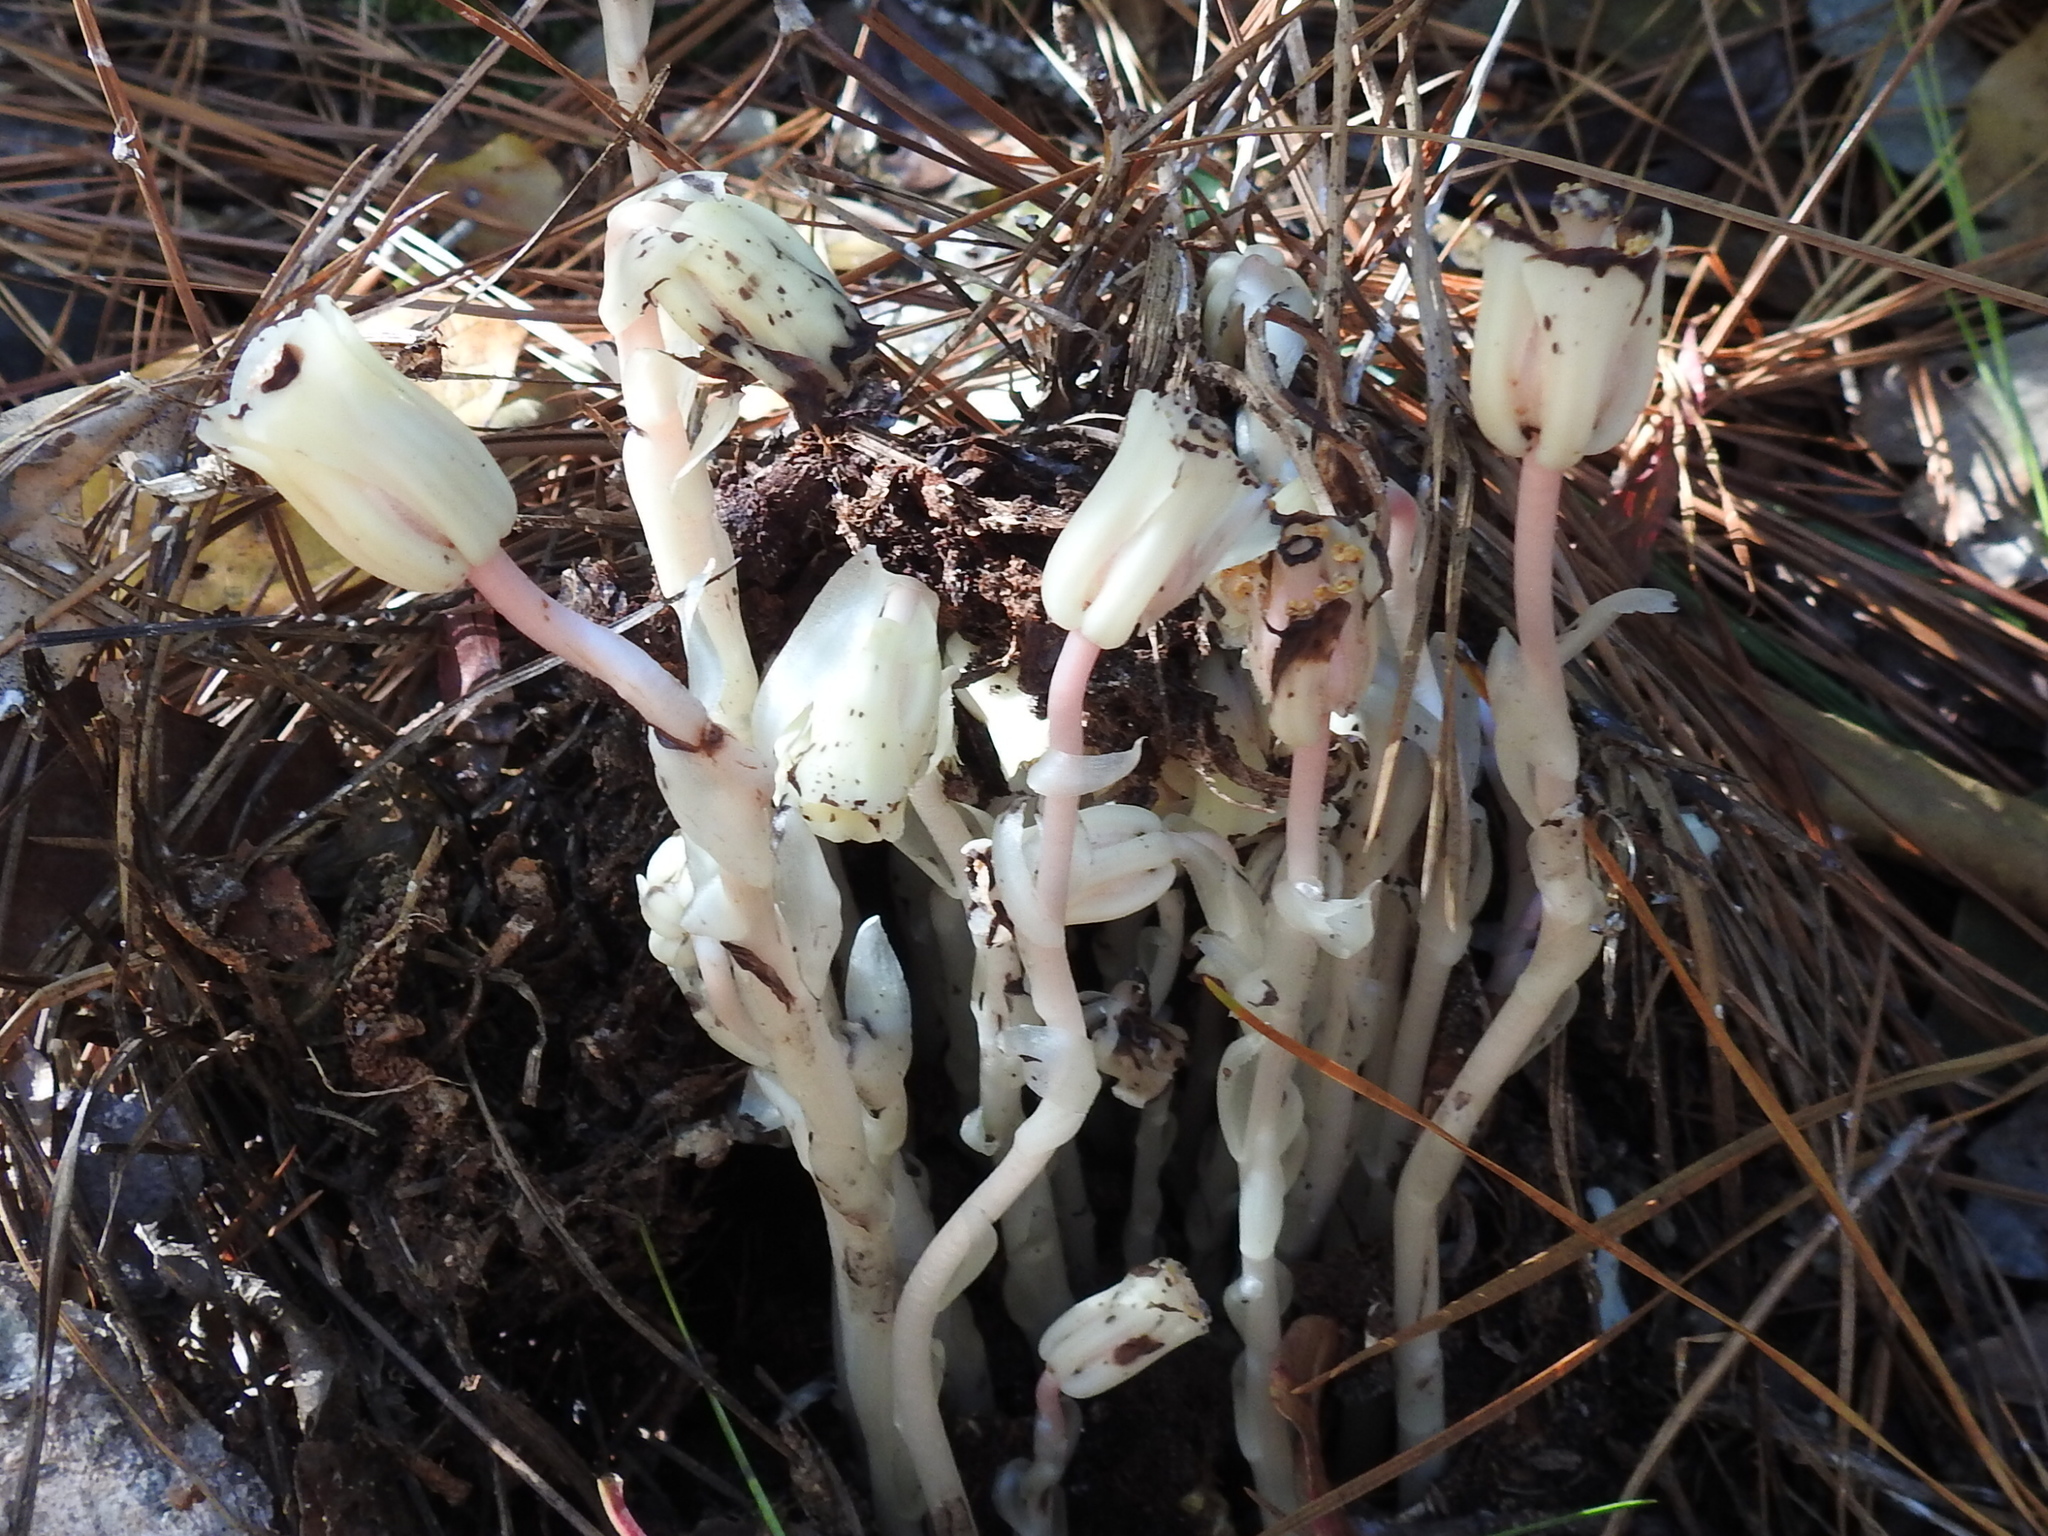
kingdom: Plantae
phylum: Tracheophyta
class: Magnoliopsida
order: Ericales
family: Ericaceae
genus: Monotropa
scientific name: Monotropa uniflora
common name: Convulsion root
